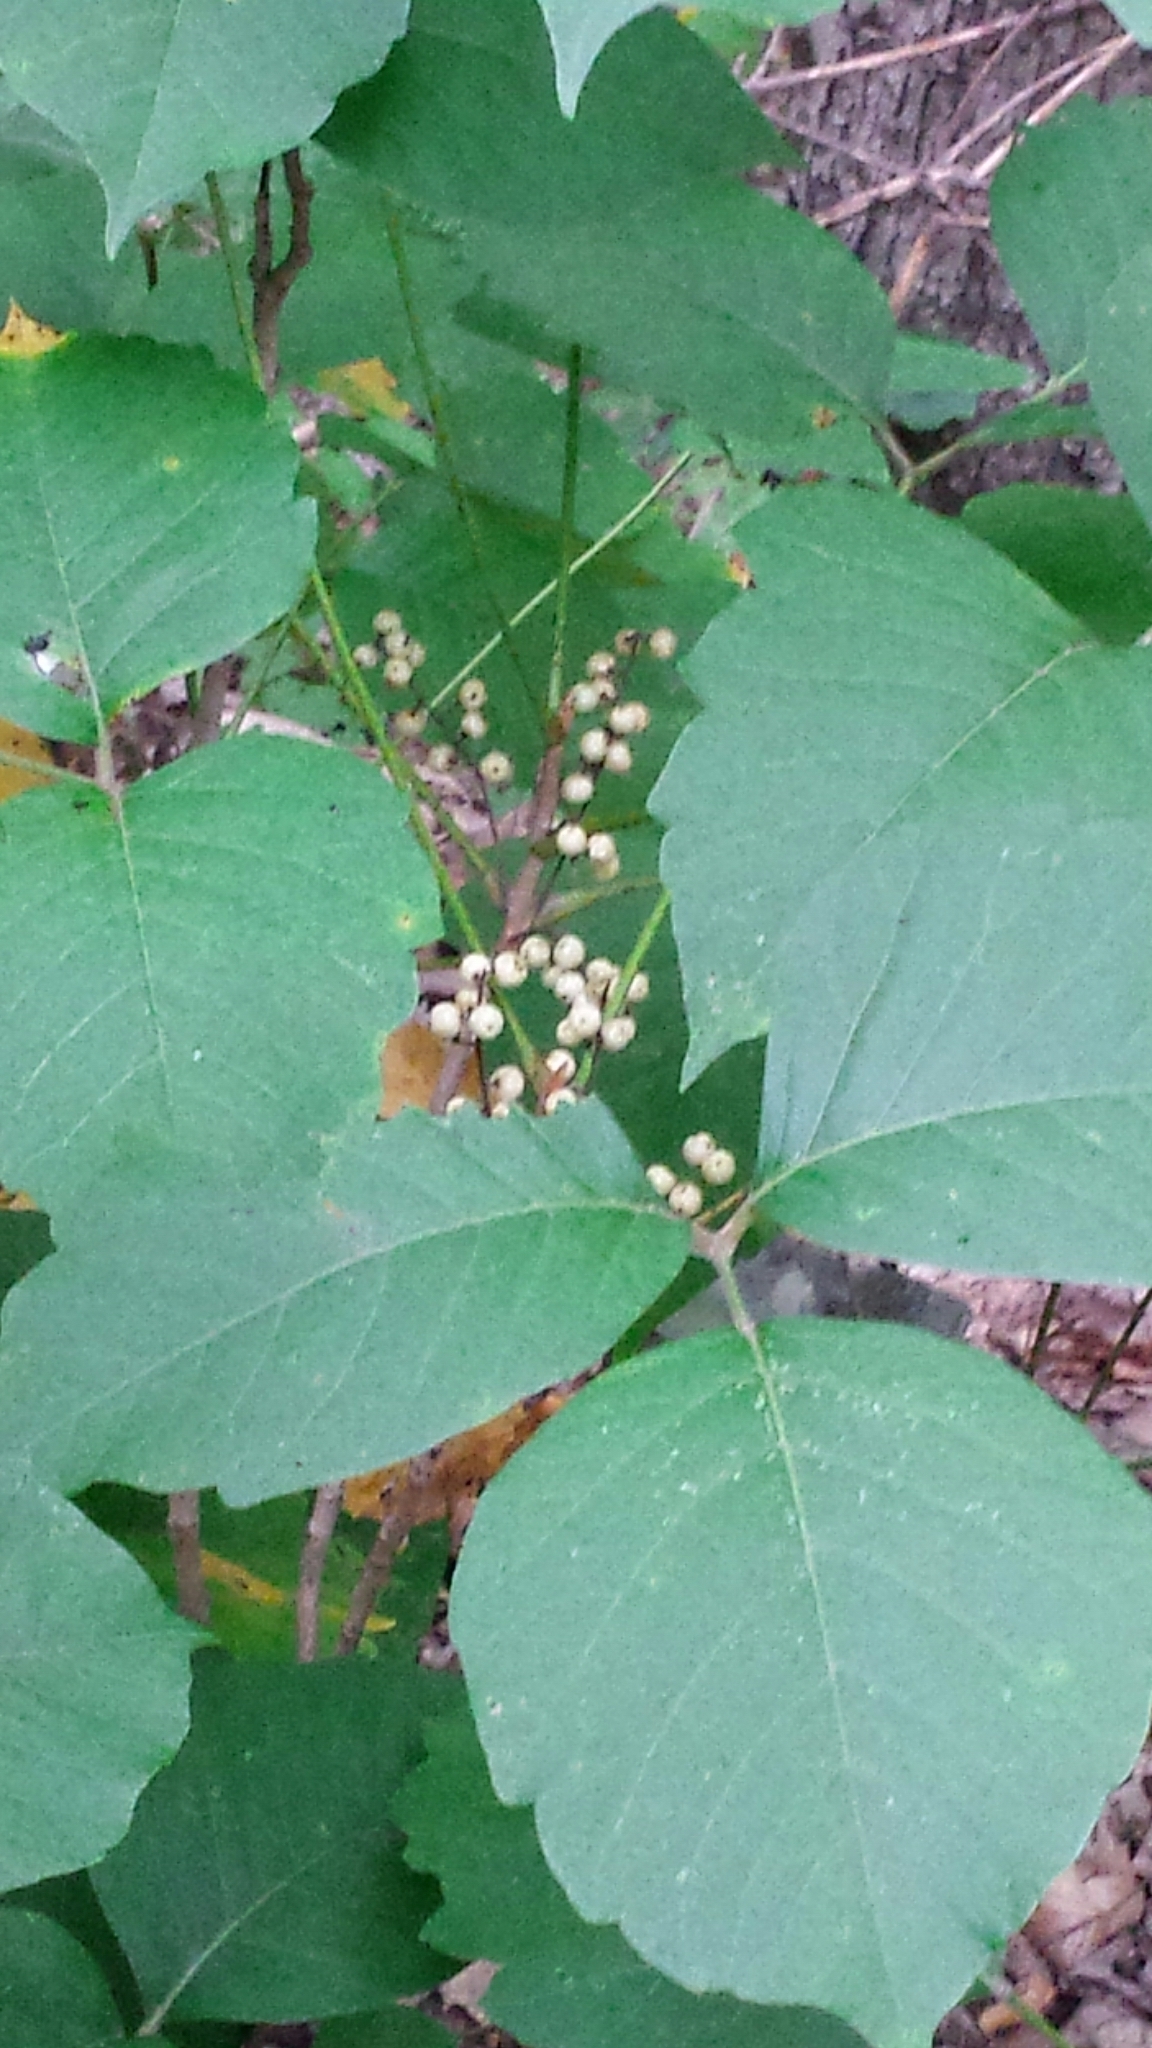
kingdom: Plantae
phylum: Tracheophyta
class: Magnoliopsida
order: Sapindales
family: Anacardiaceae
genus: Toxicodendron
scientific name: Toxicodendron radicans
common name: Poison ivy
